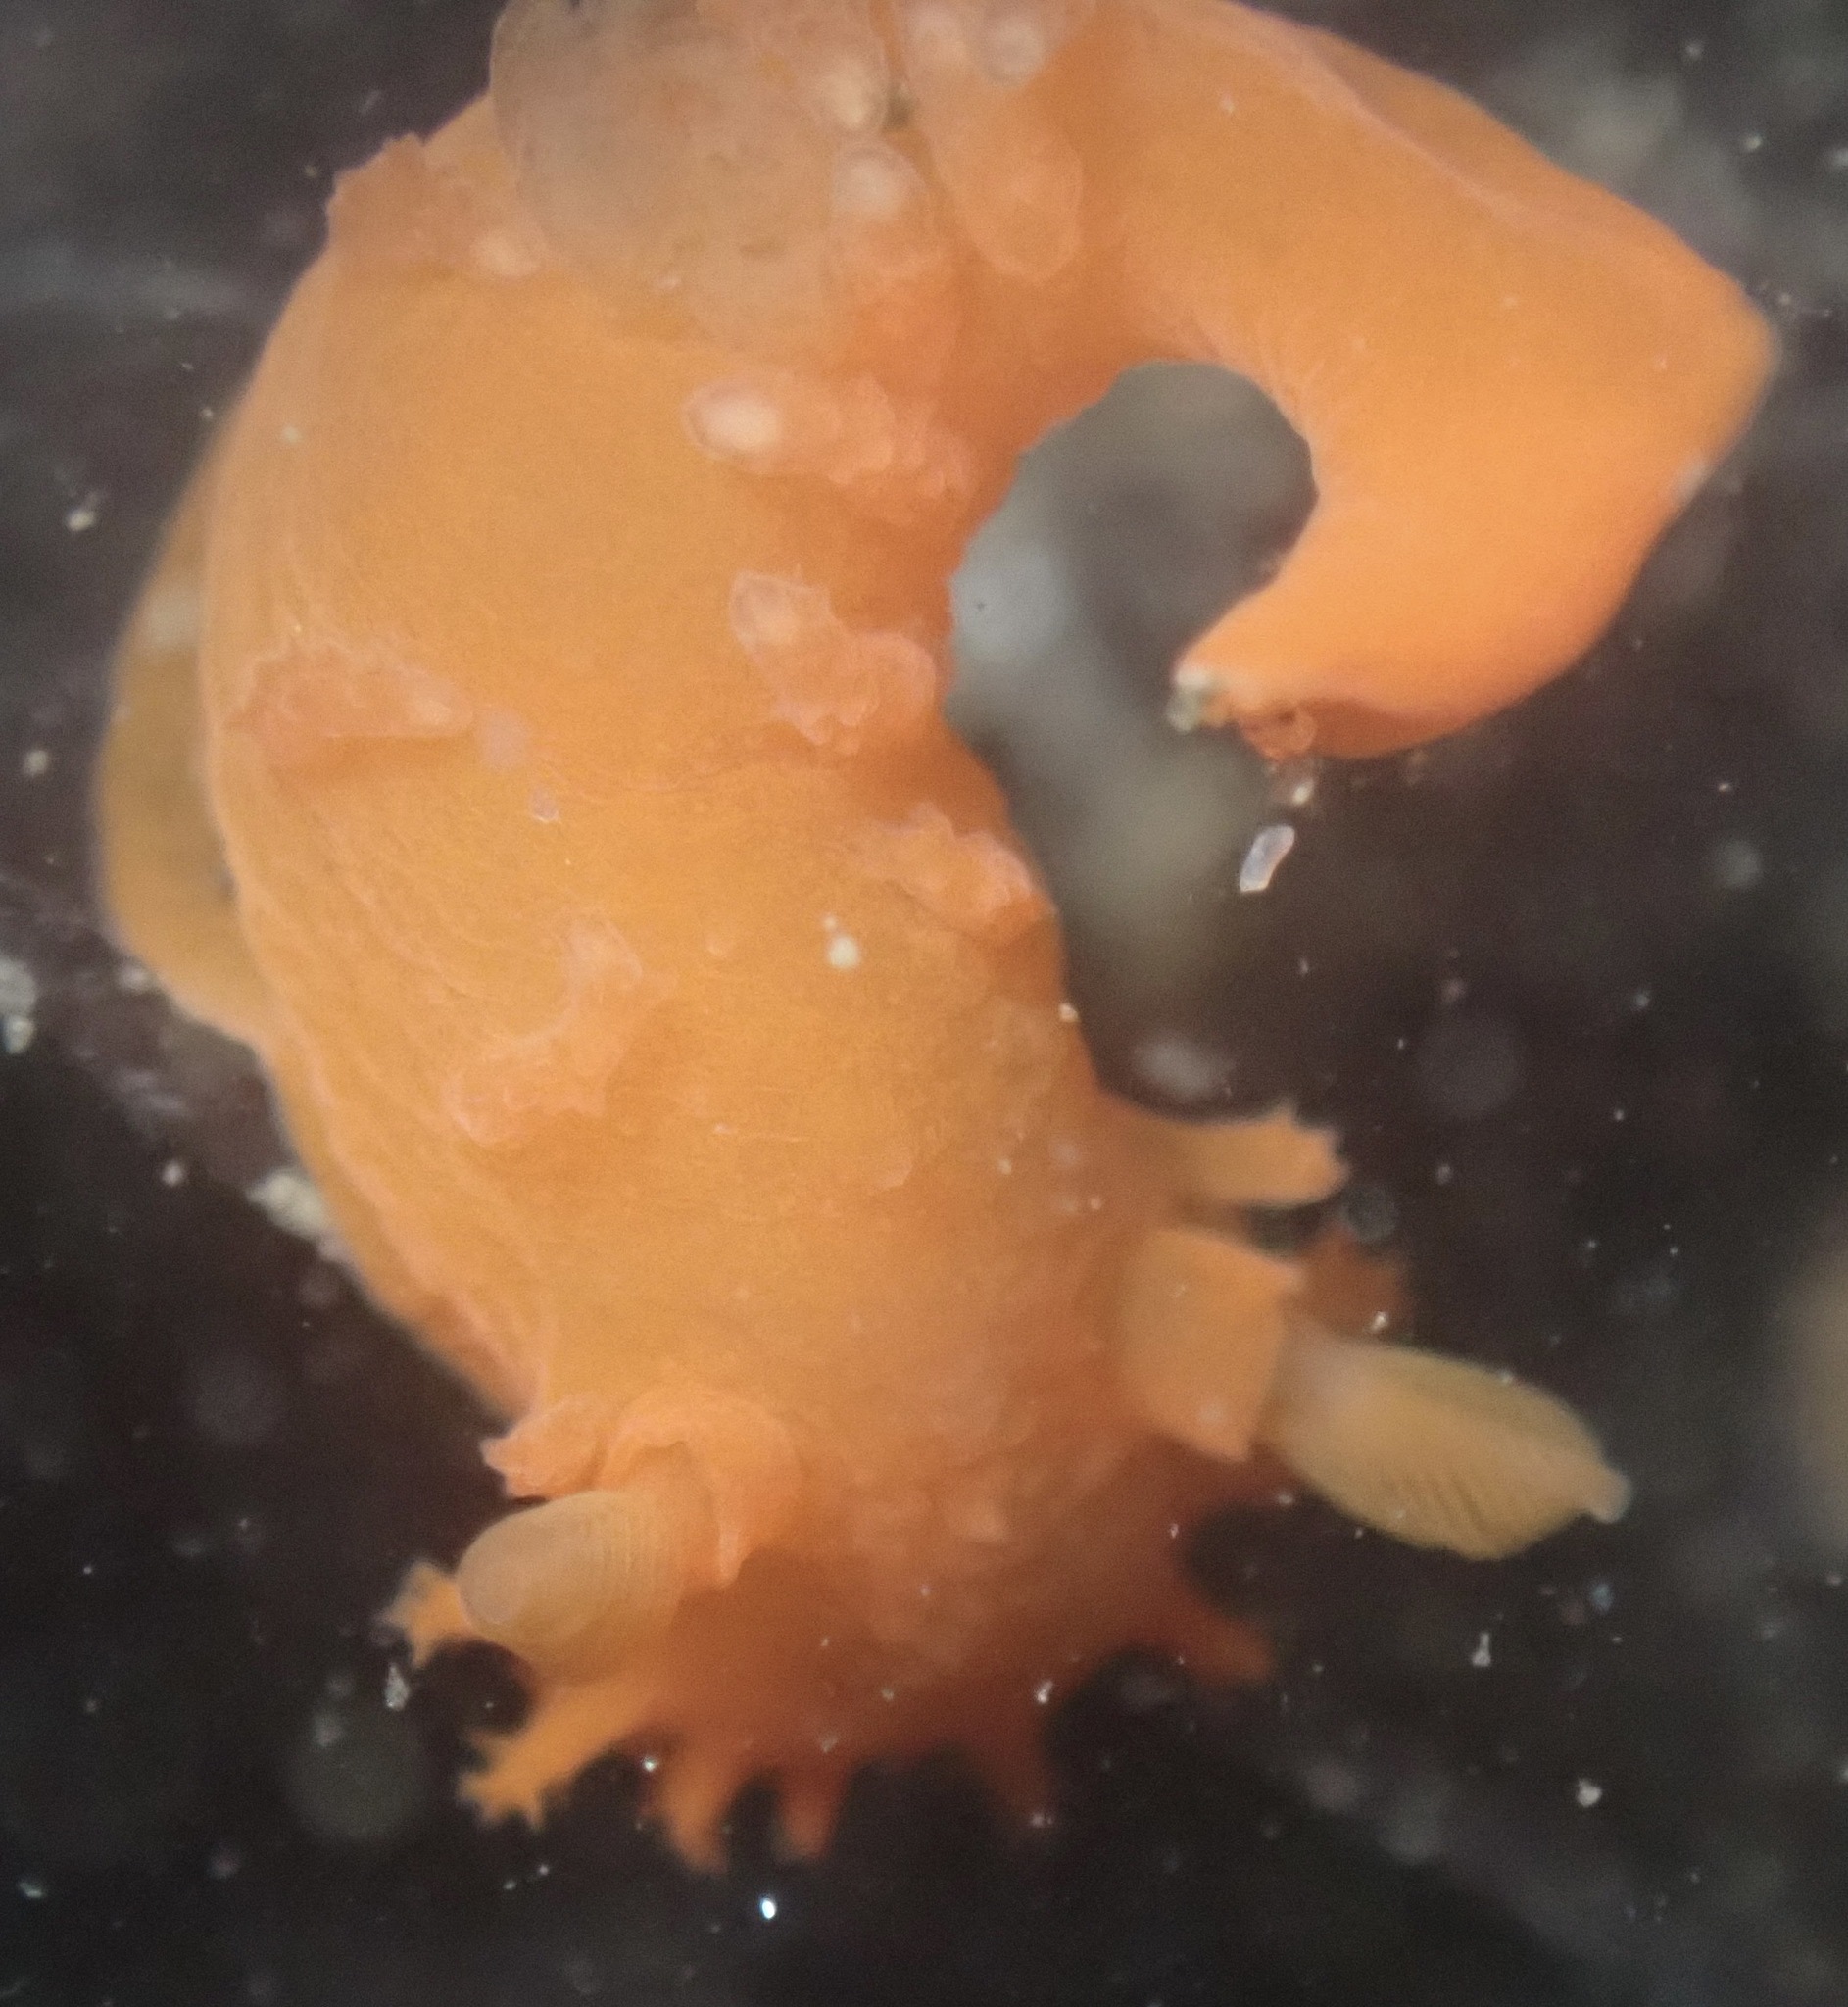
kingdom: Animalia
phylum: Mollusca
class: Gastropoda
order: Nudibranchia
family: Polyceridae
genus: Triopha
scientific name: Triopha maculata
